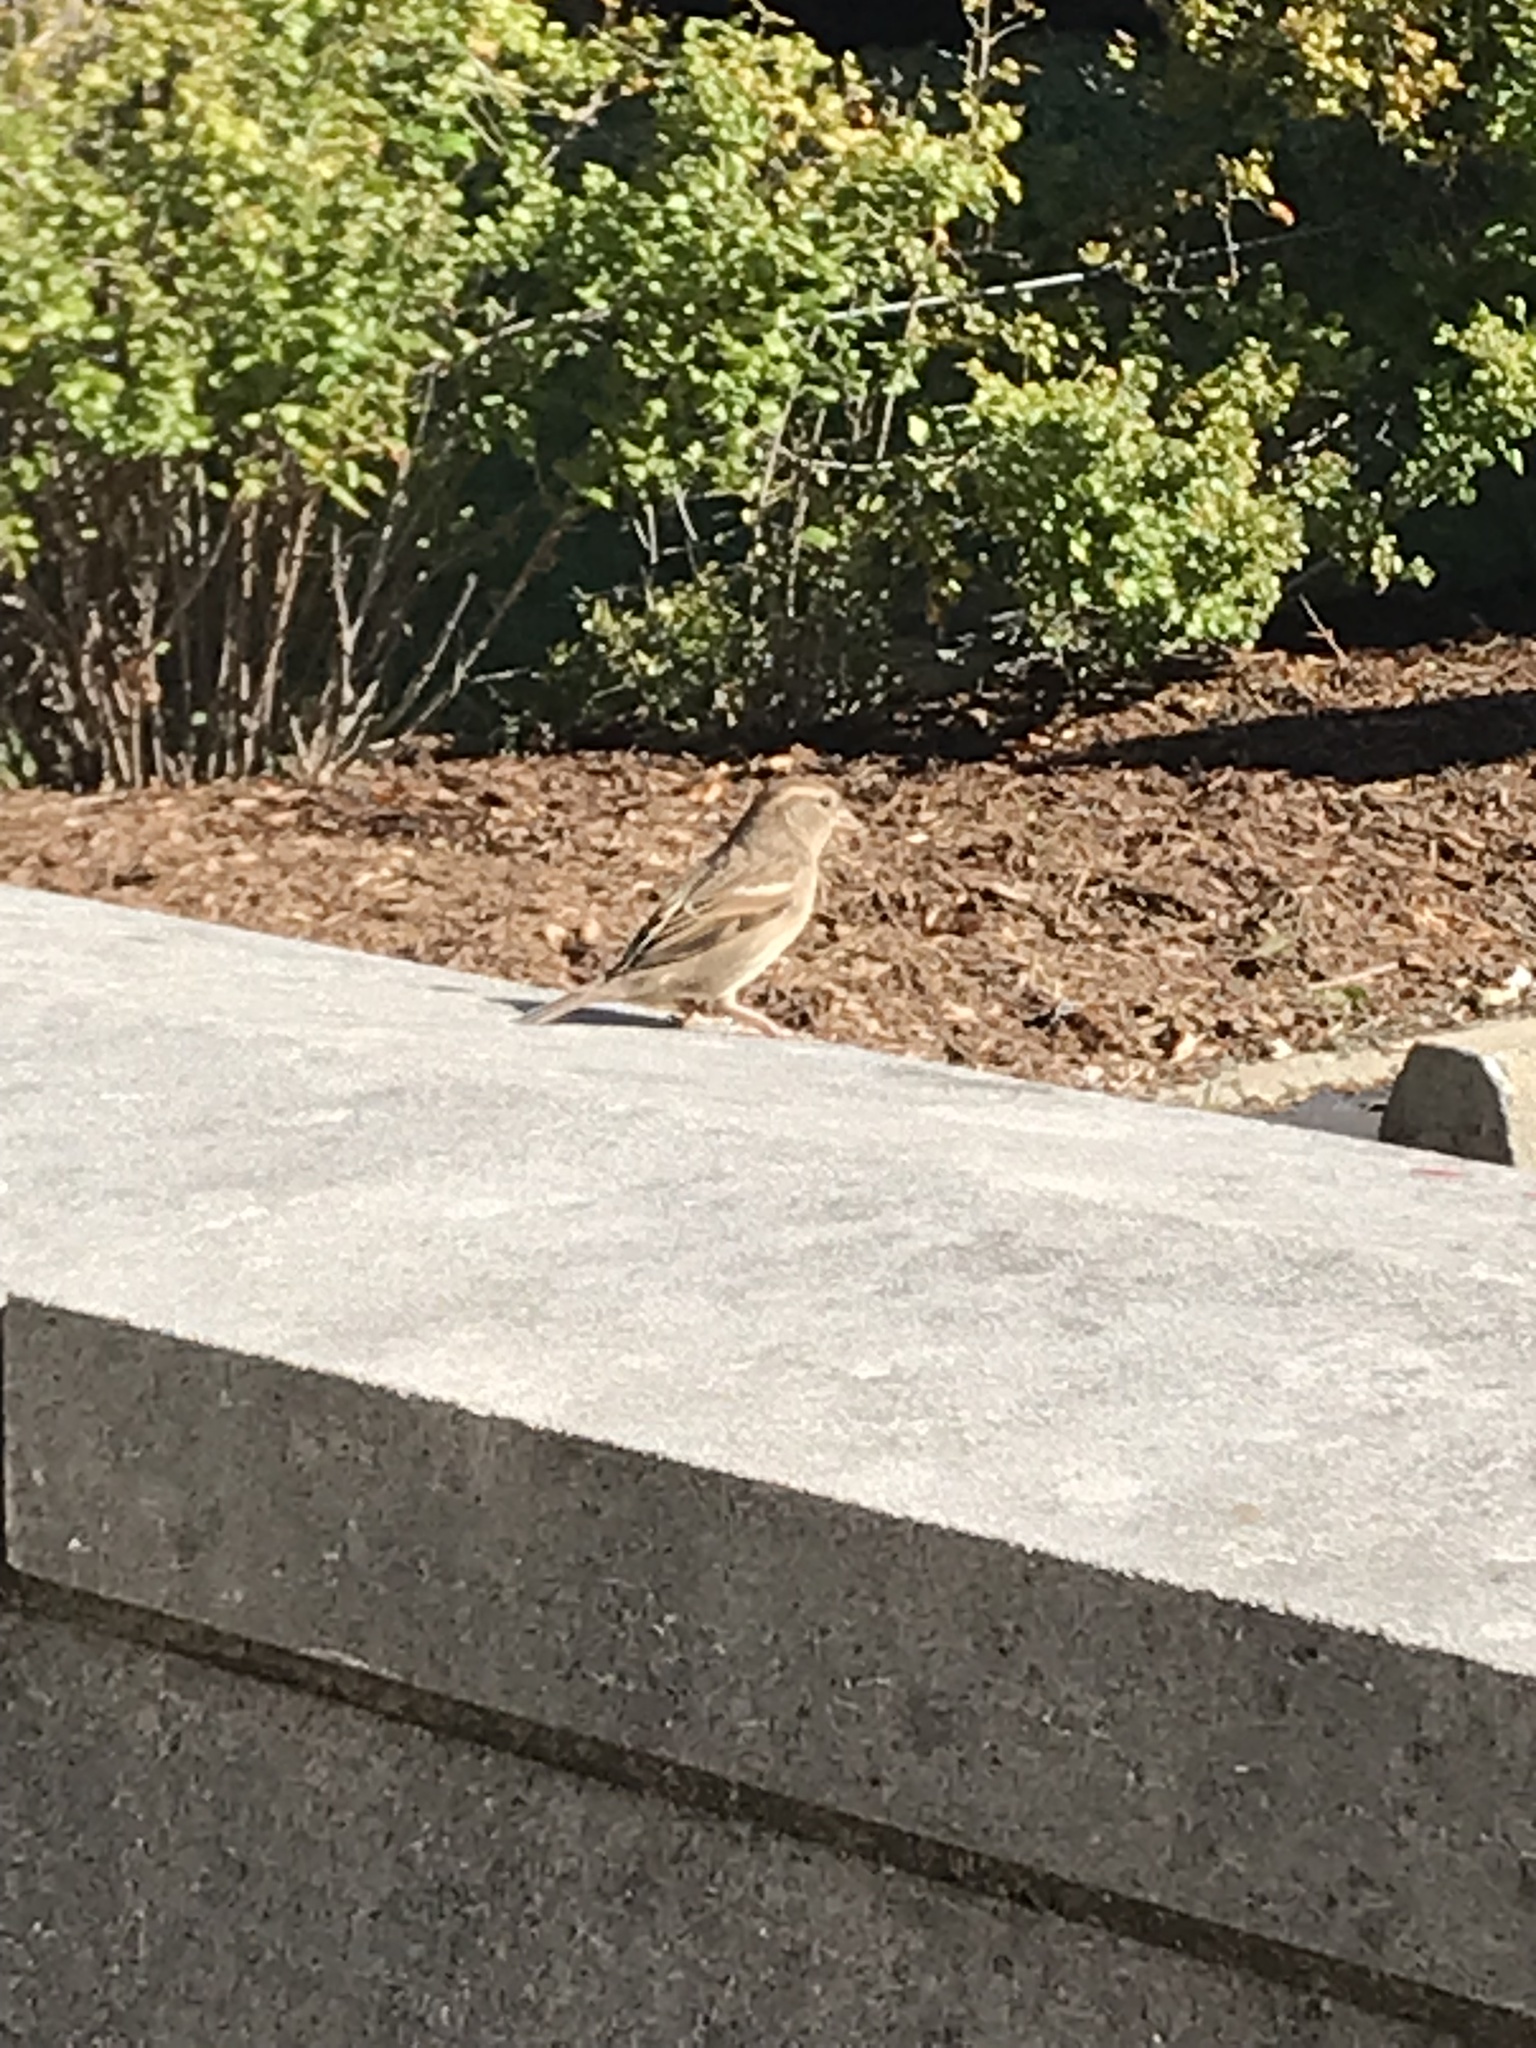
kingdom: Animalia
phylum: Chordata
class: Aves
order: Passeriformes
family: Passeridae
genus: Passer
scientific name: Passer domesticus
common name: House sparrow
